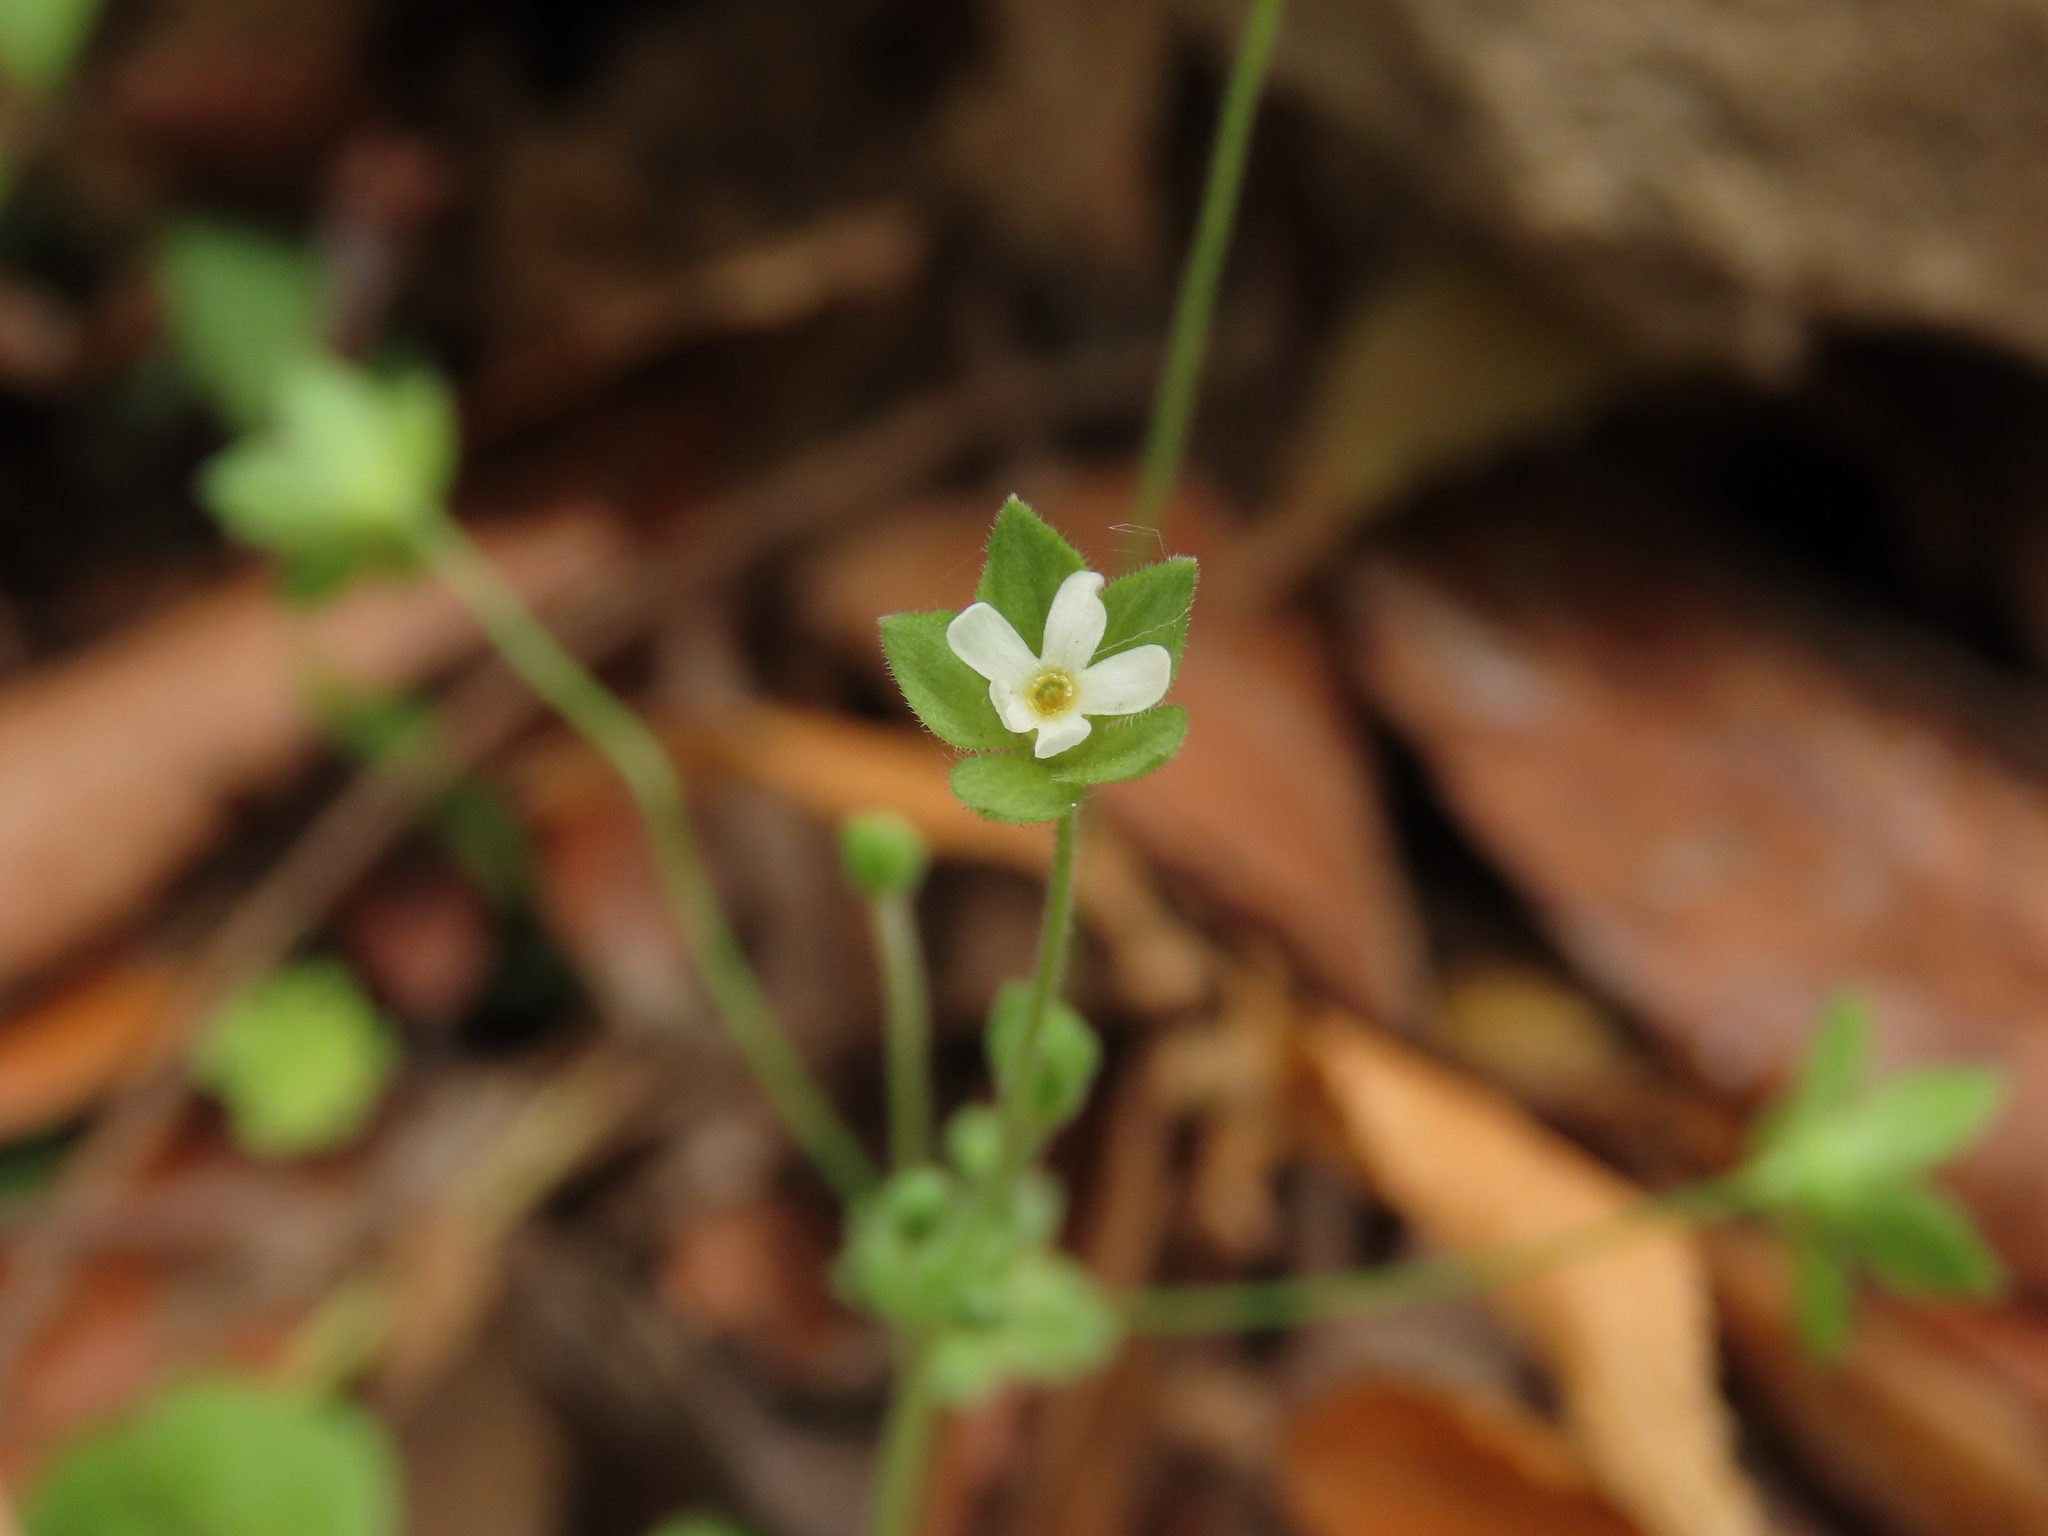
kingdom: Plantae
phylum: Tracheophyta
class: Magnoliopsida
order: Ericales
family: Primulaceae
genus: Androsace
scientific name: Androsace umbellata
